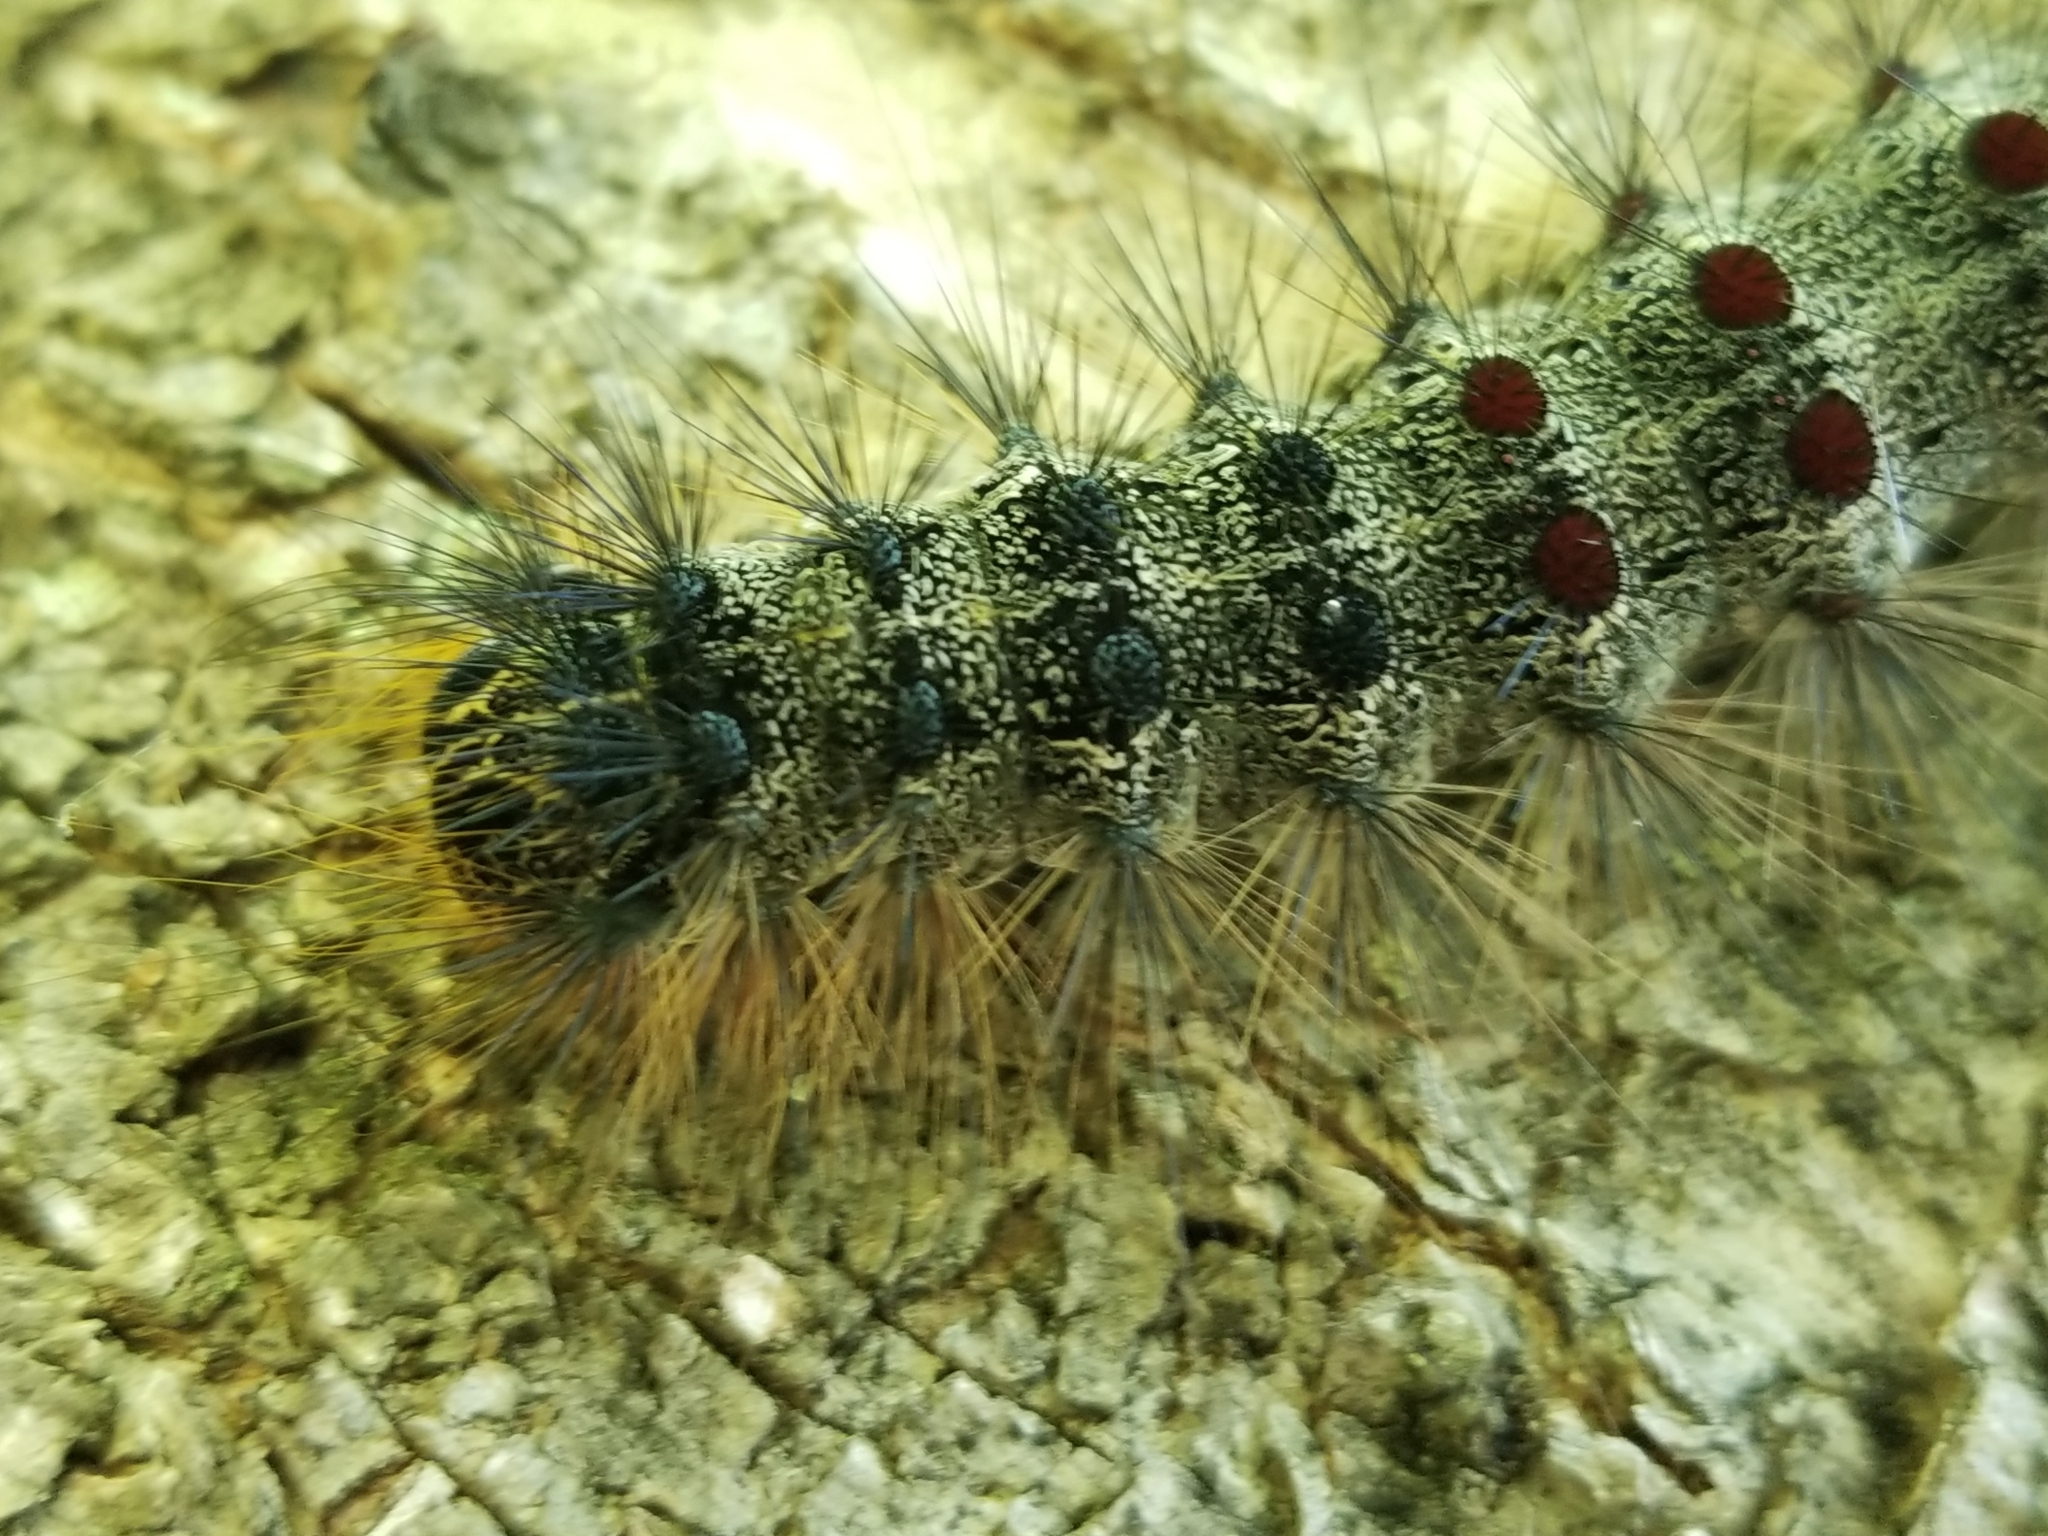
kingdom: Animalia
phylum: Arthropoda
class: Insecta
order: Lepidoptera
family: Erebidae
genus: Lymantria
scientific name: Lymantria dispar
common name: Gypsy moth
